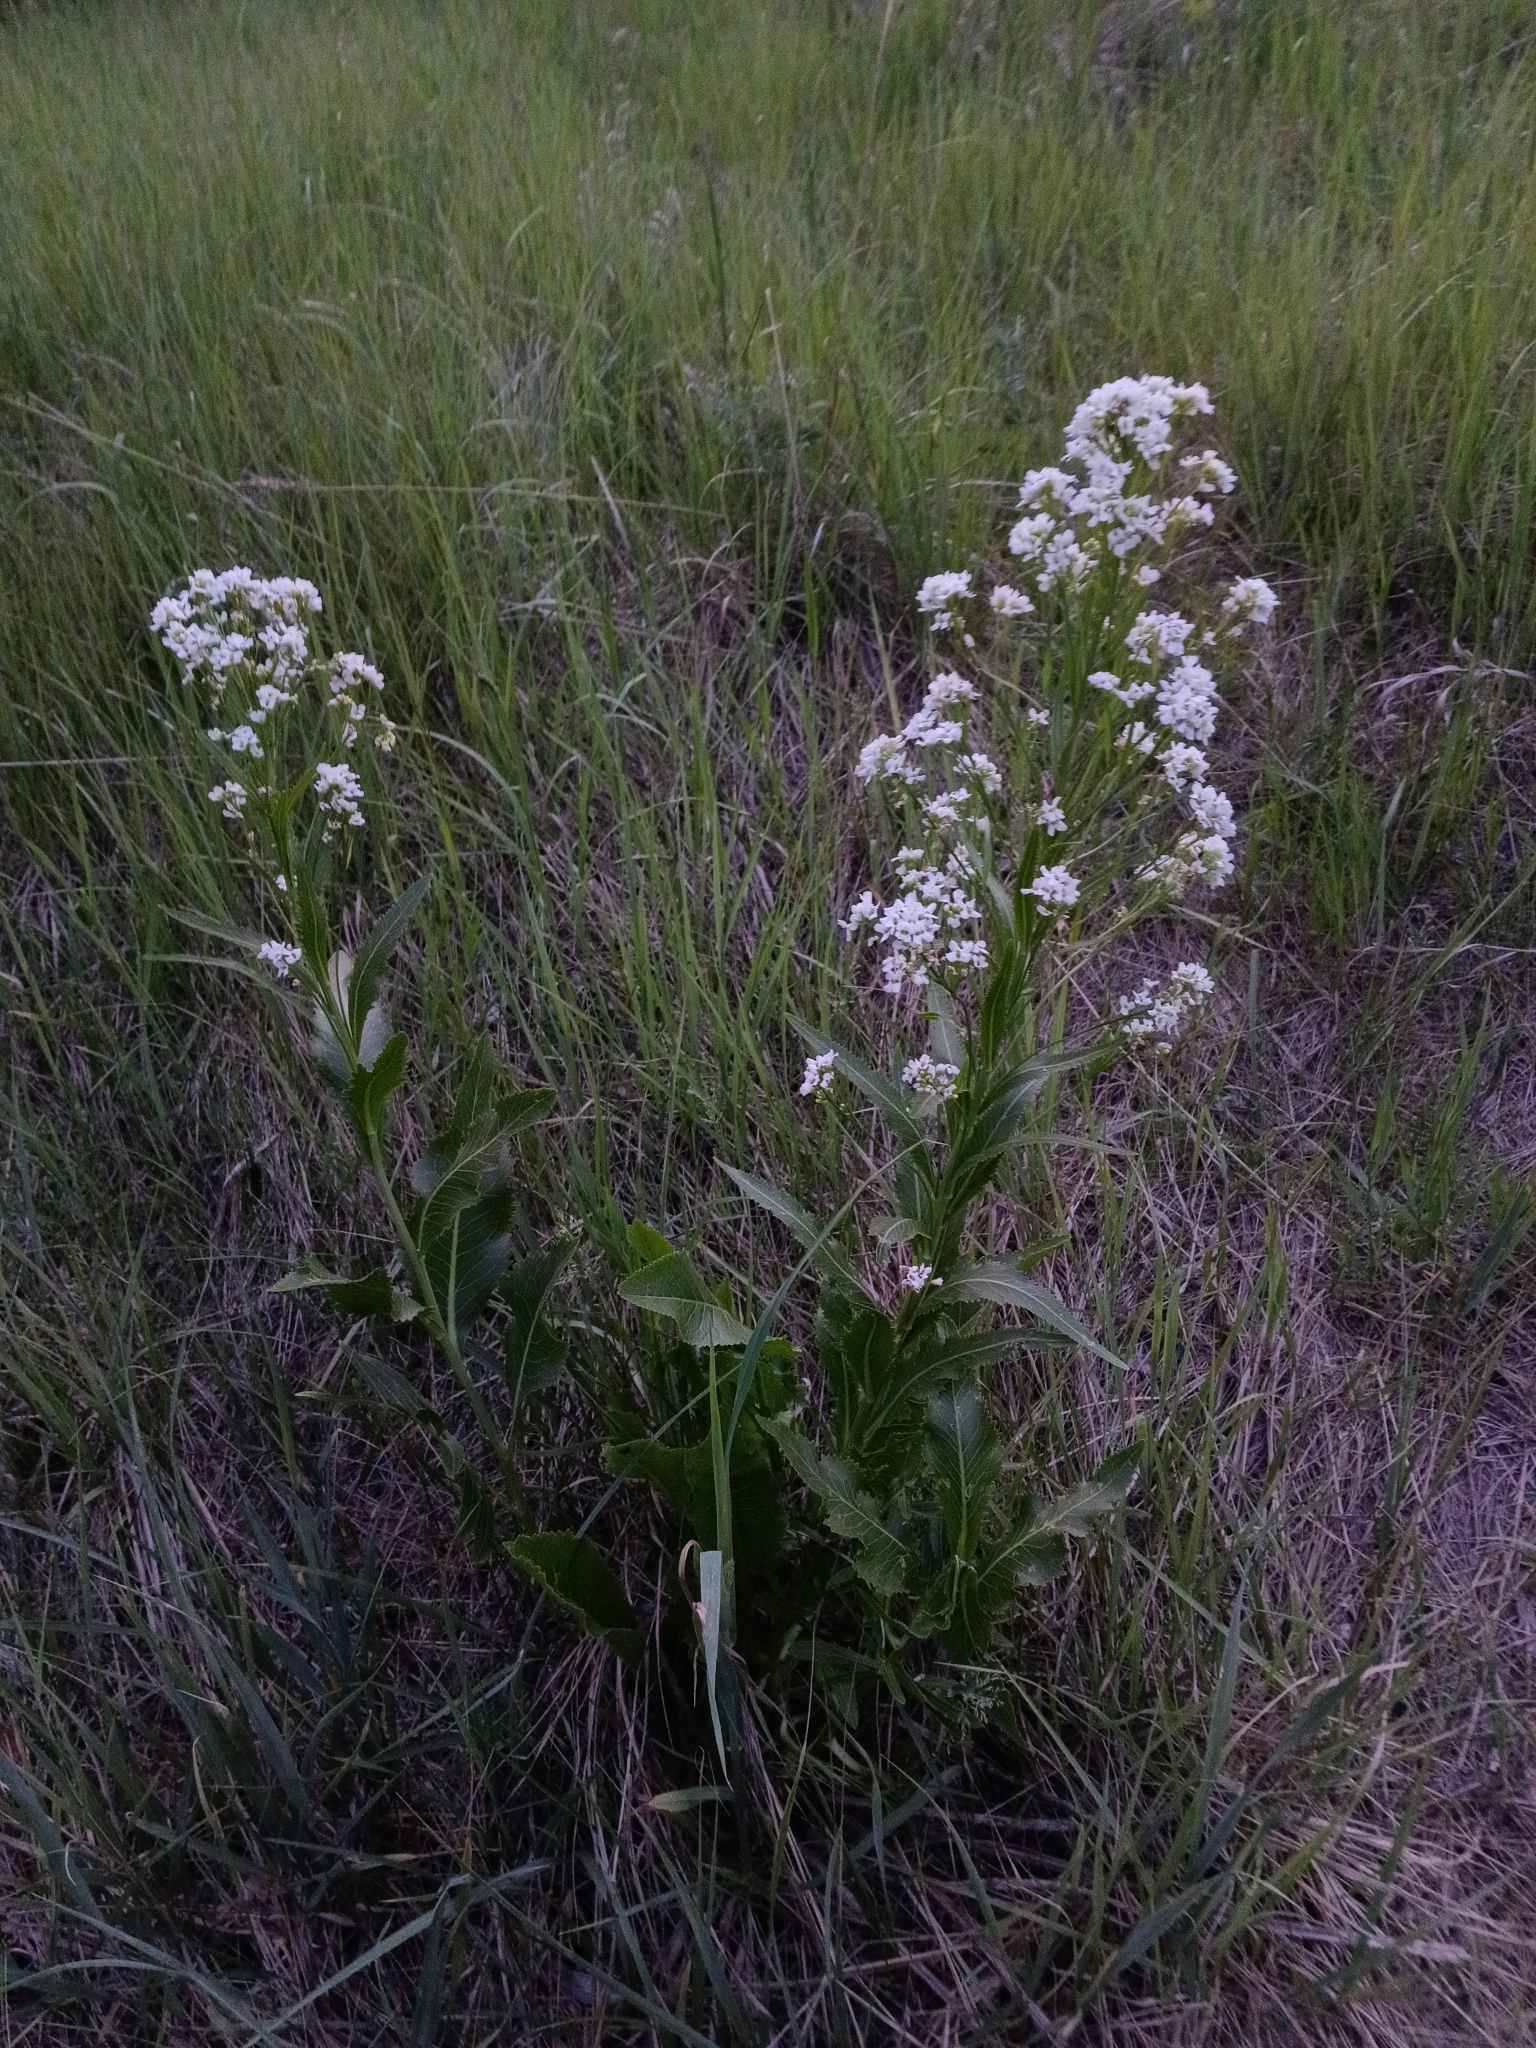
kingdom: Plantae
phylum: Tracheophyta
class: Magnoliopsida
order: Brassicales
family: Brassicaceae
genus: Armoracia
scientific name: Armoracia rusticana
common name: Horseradish
